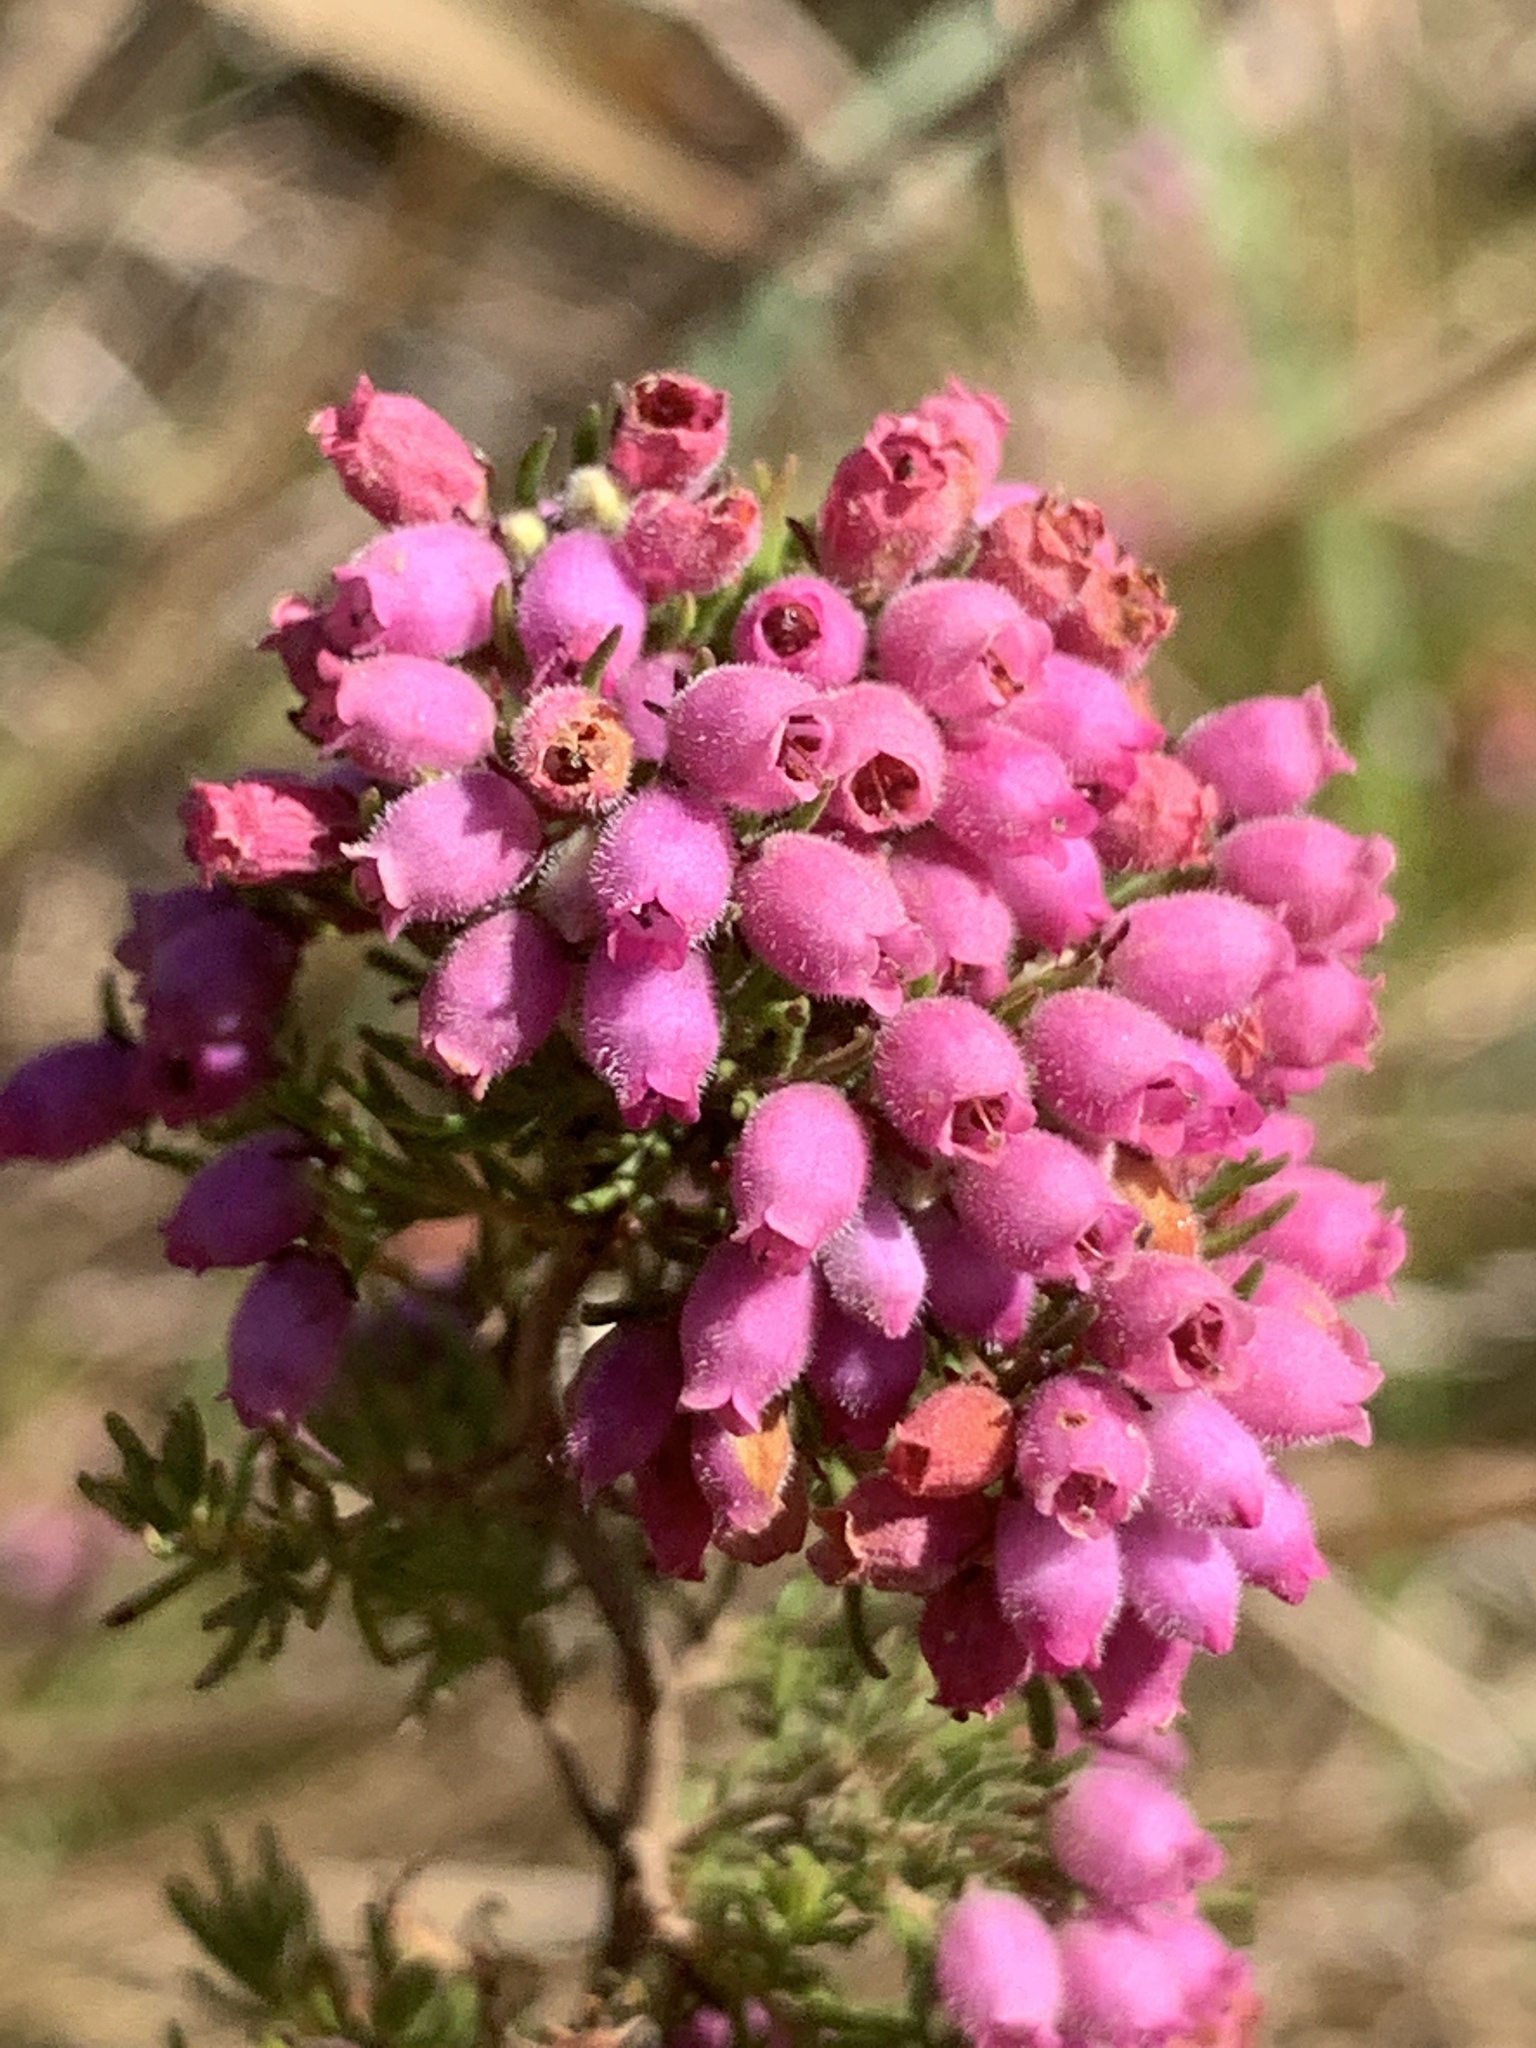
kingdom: Plantae
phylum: Tracheophyta
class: Magnoliopsida
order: Ericales
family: Ericaceae
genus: Erica
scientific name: Erica hirtiflora
